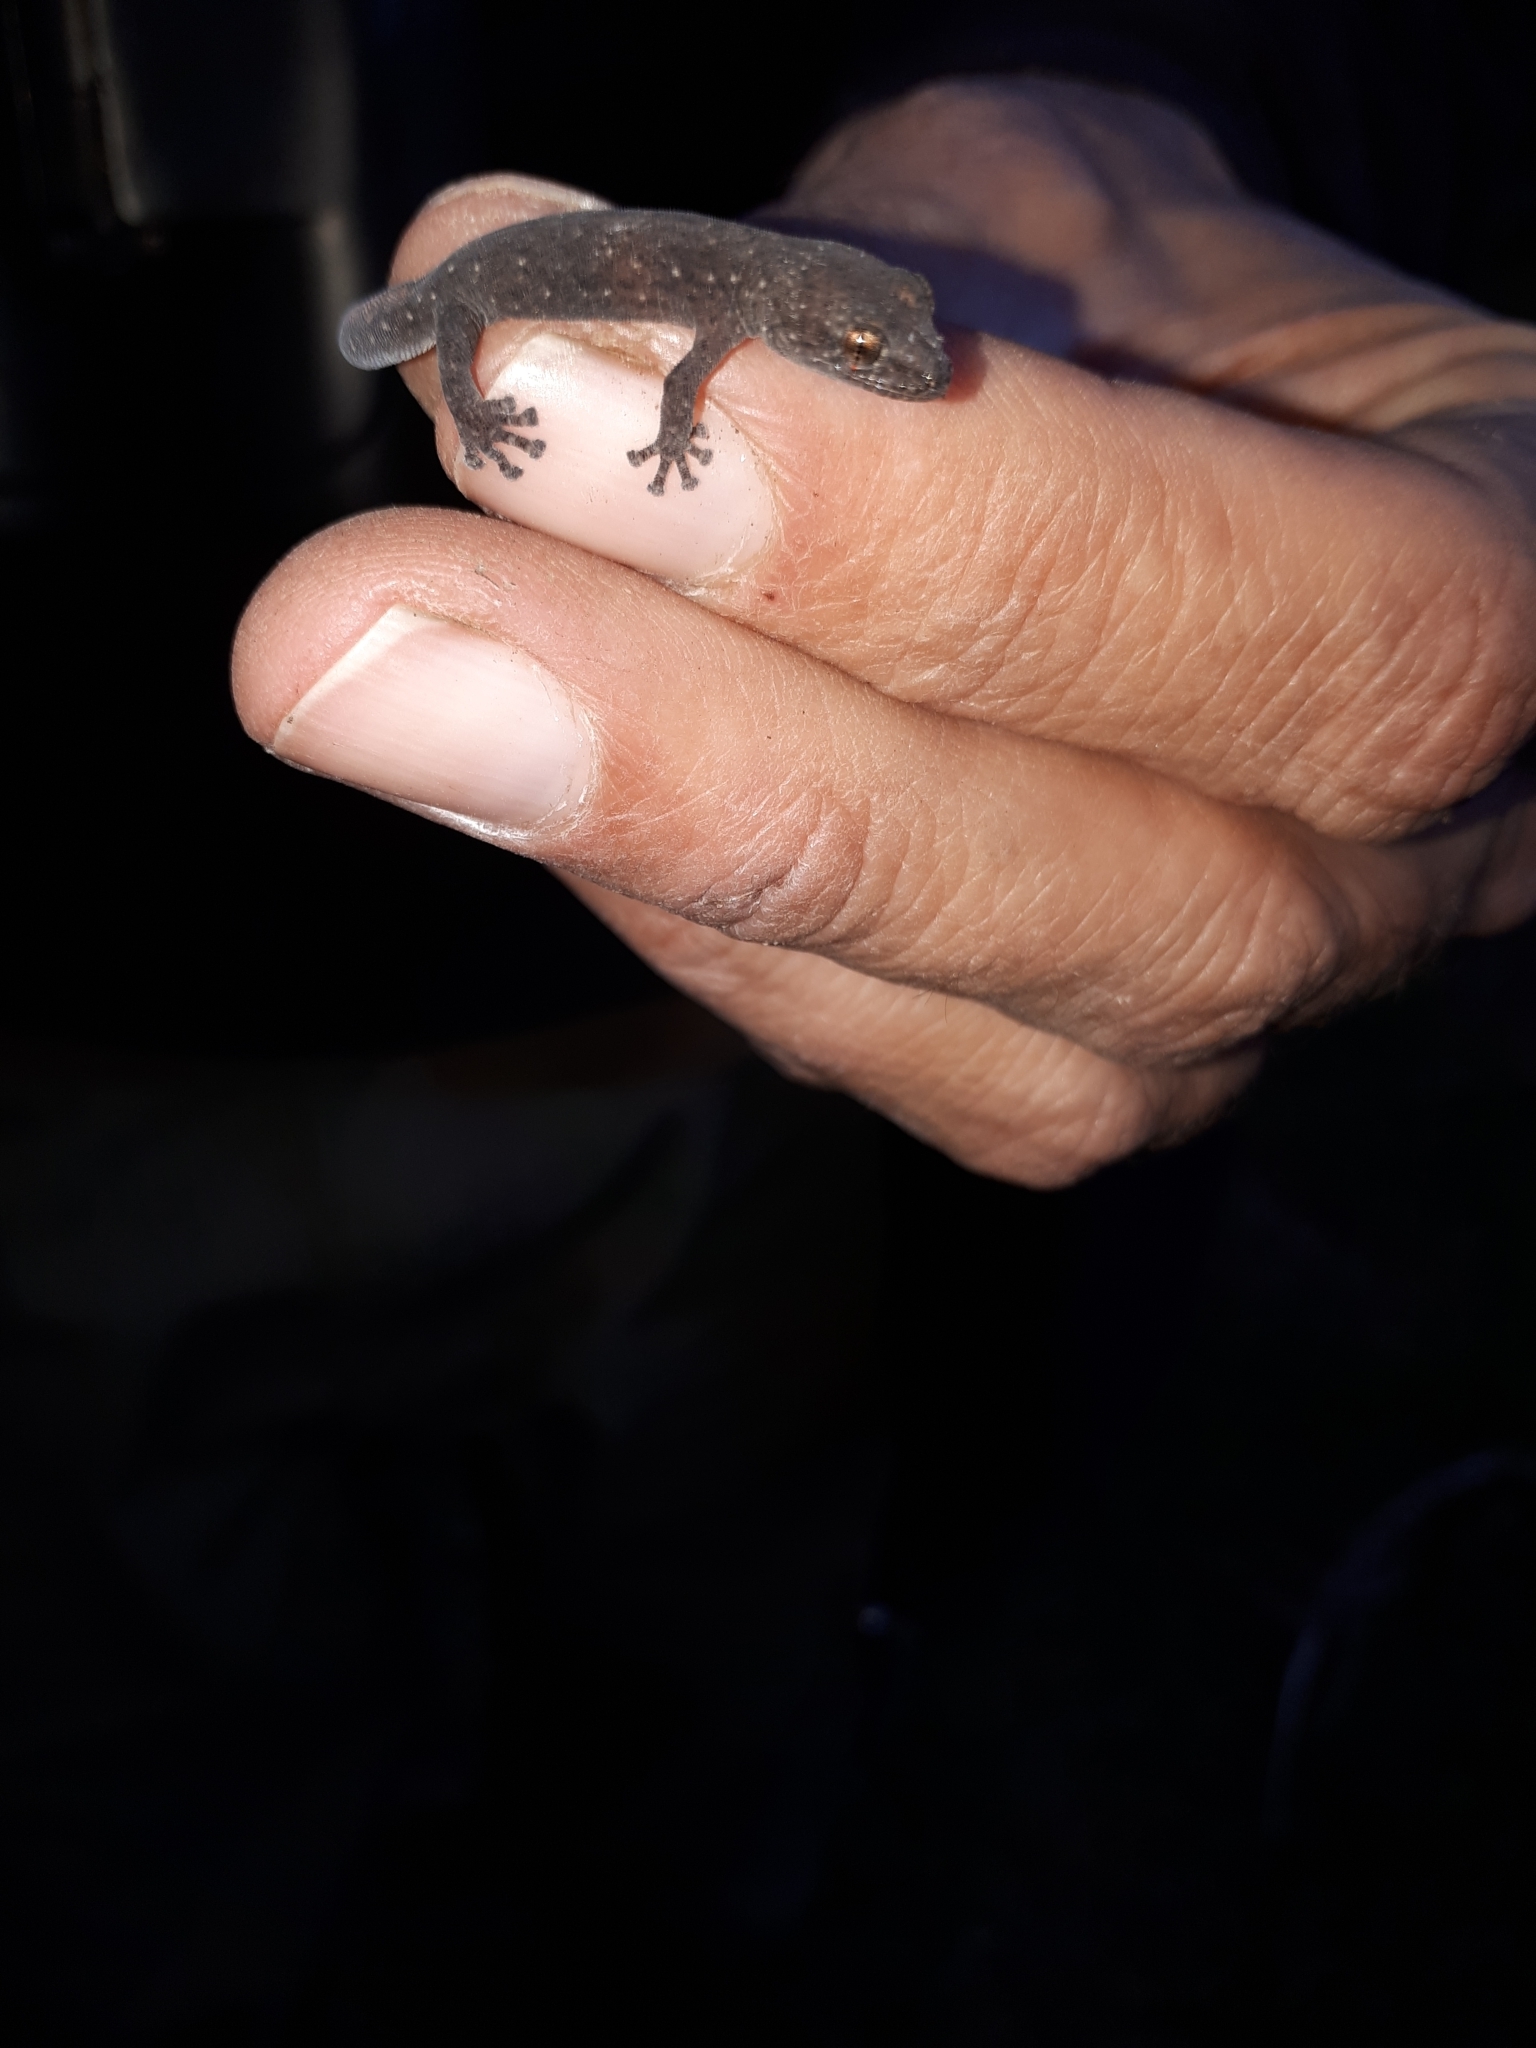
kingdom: Animalia
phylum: Chordata
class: Squamata
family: Gekkonidae
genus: Afrogecko
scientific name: Afrogecko porphyreus
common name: Marbled leaf-toed gecko
